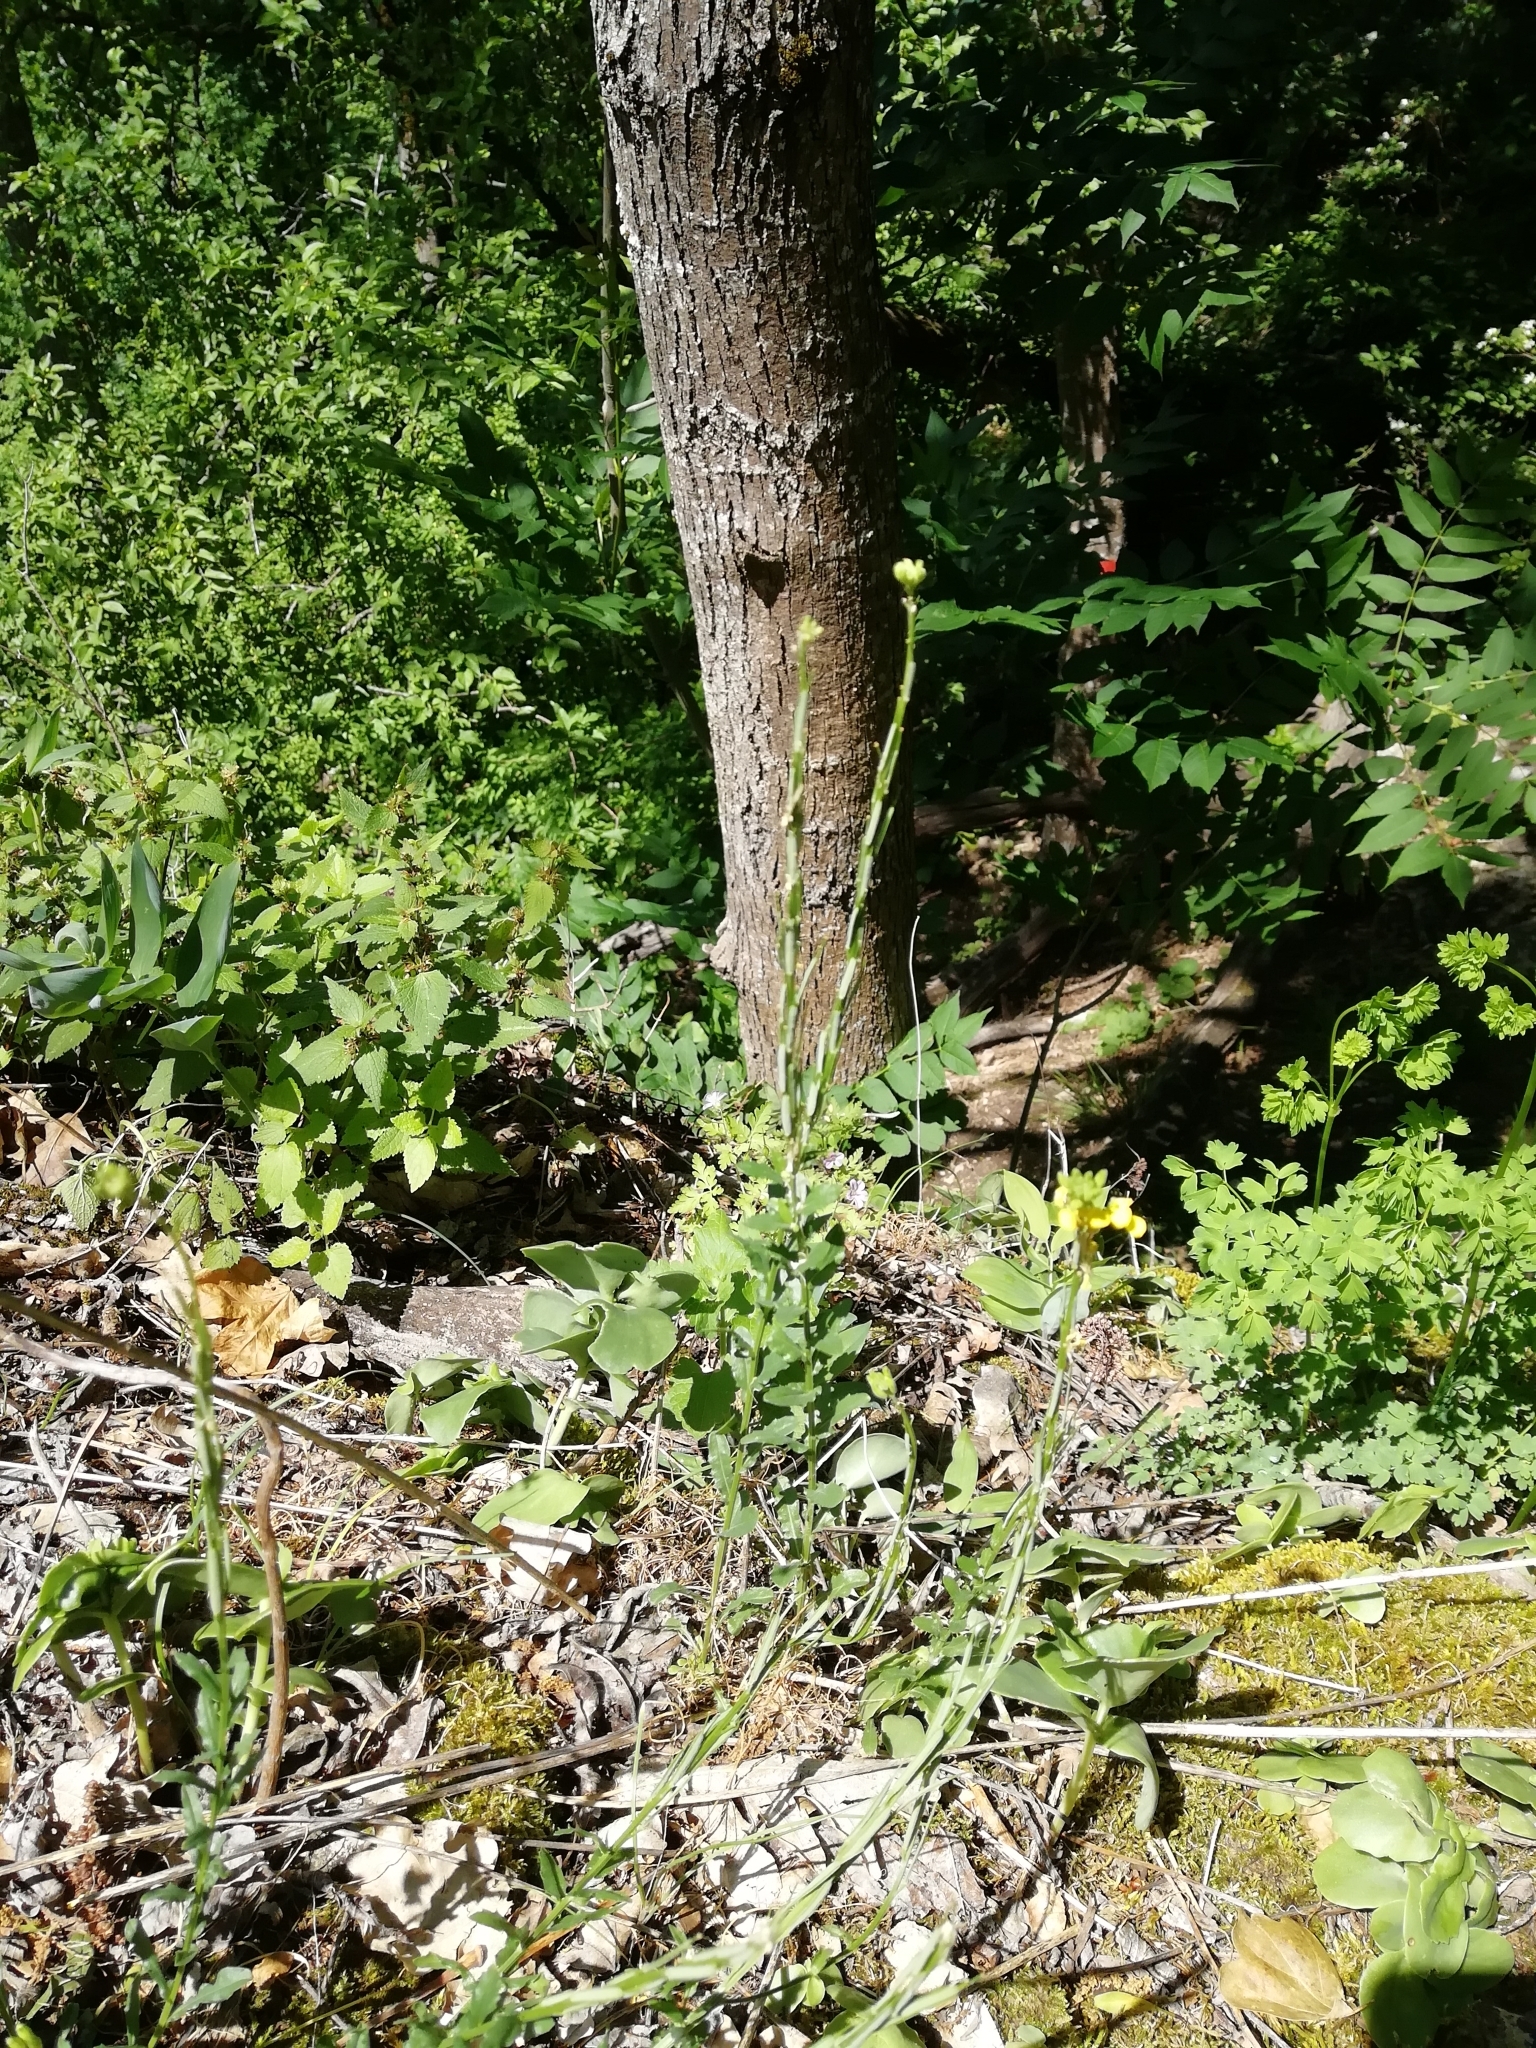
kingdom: Plantae
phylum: Tracheophyta
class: Magnoliopsida
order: Brassicales
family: Brassicaceae
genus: Erysimum
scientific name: Erysimum cuspidatum
